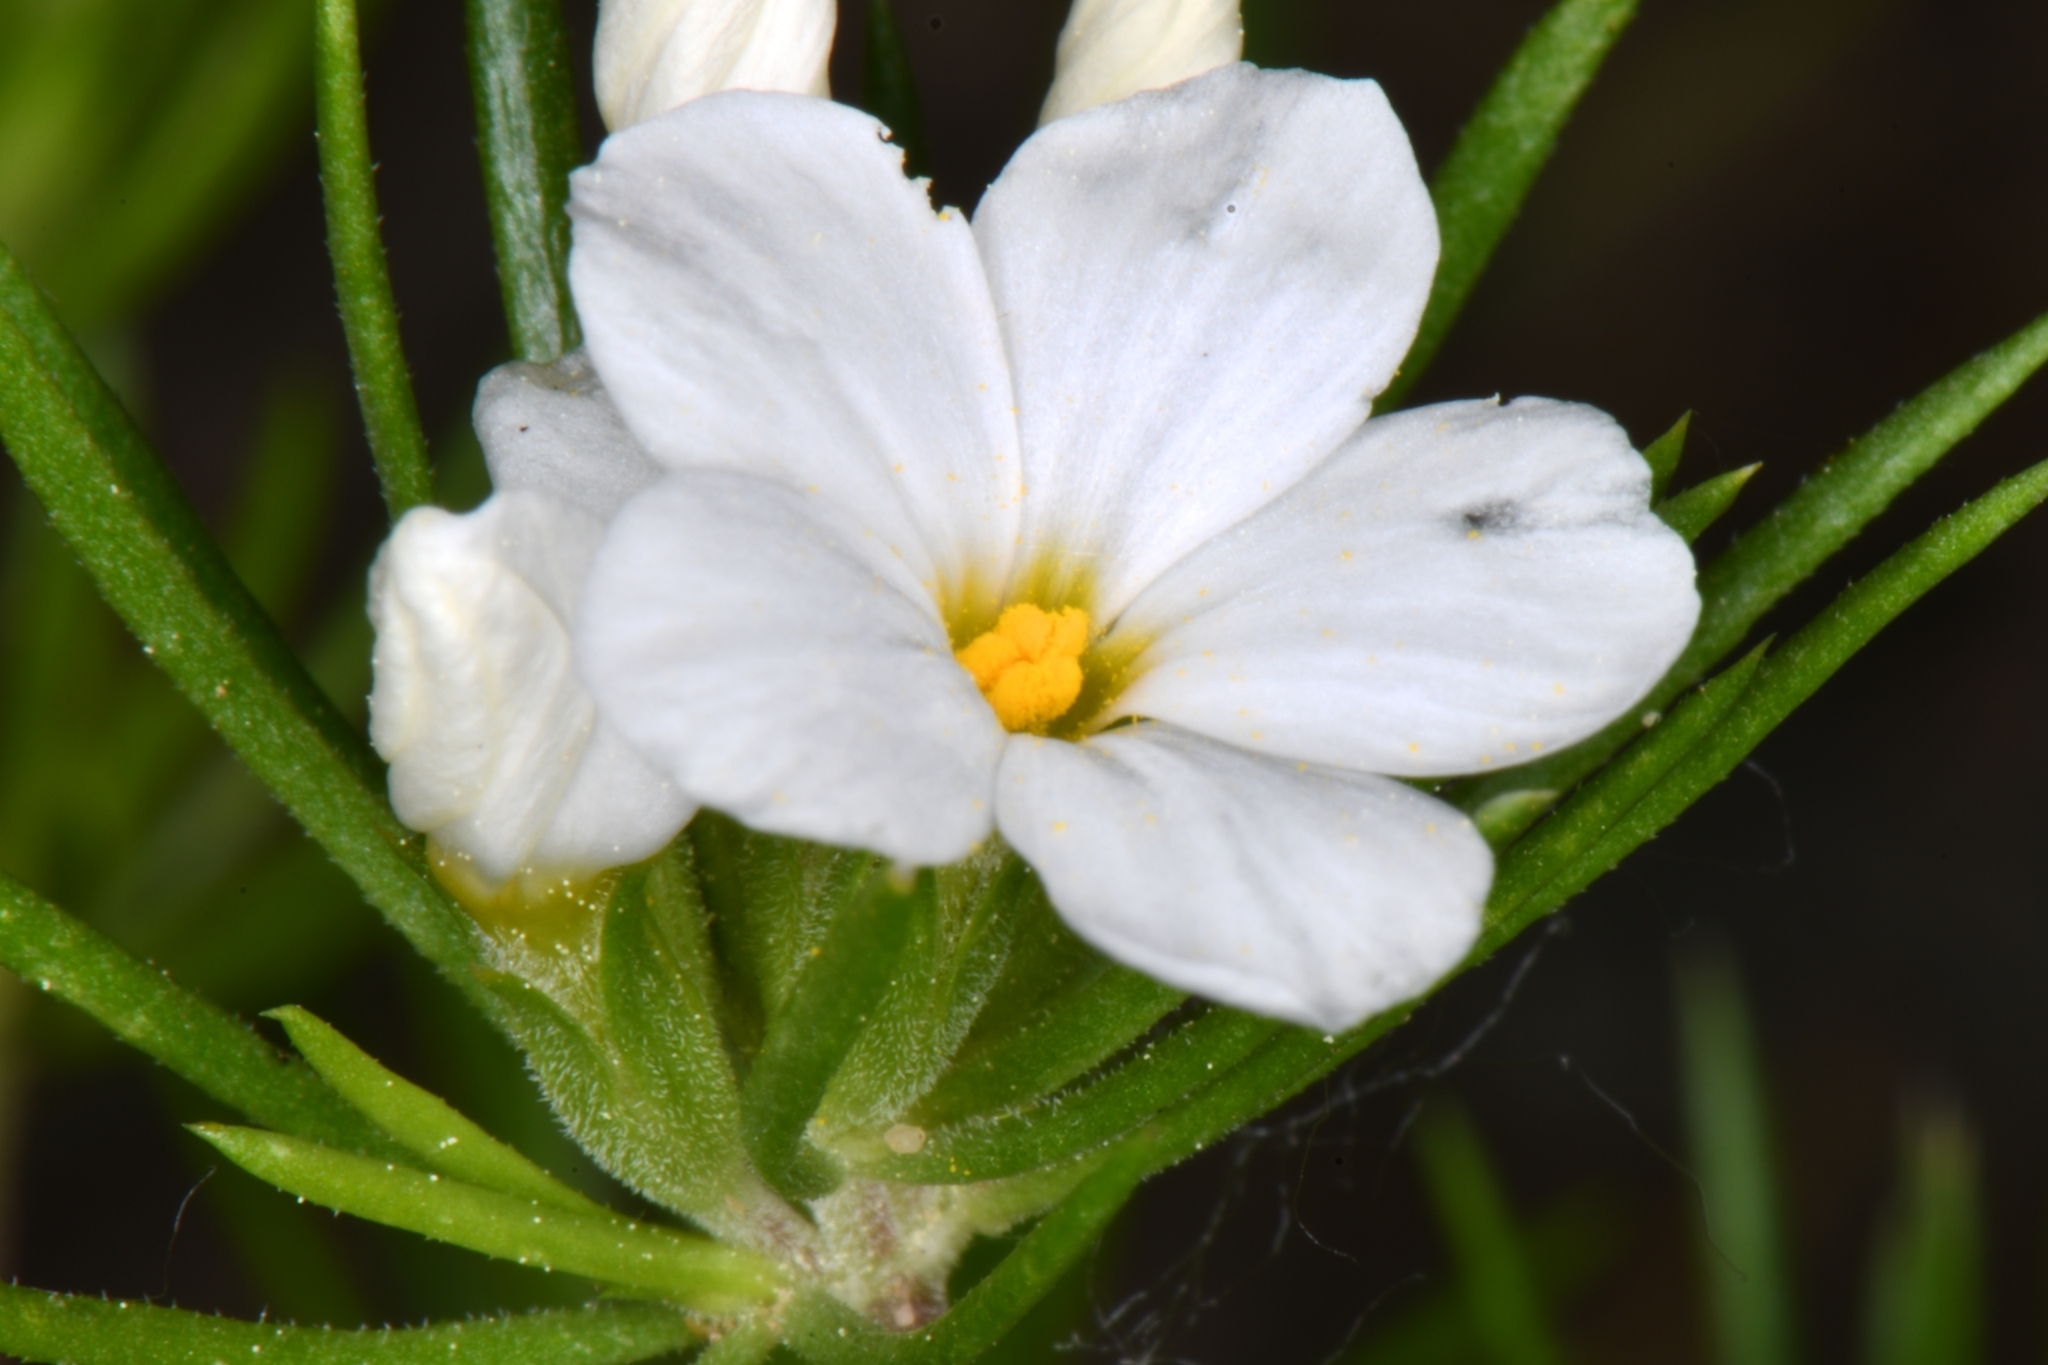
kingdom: Plantae
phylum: Tracheophyta
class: Magnoliopsida
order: Ericales
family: Polemoniaceae
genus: Leptosiphon
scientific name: Leptosiphon nuttallii
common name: Nuttall's linanthus
